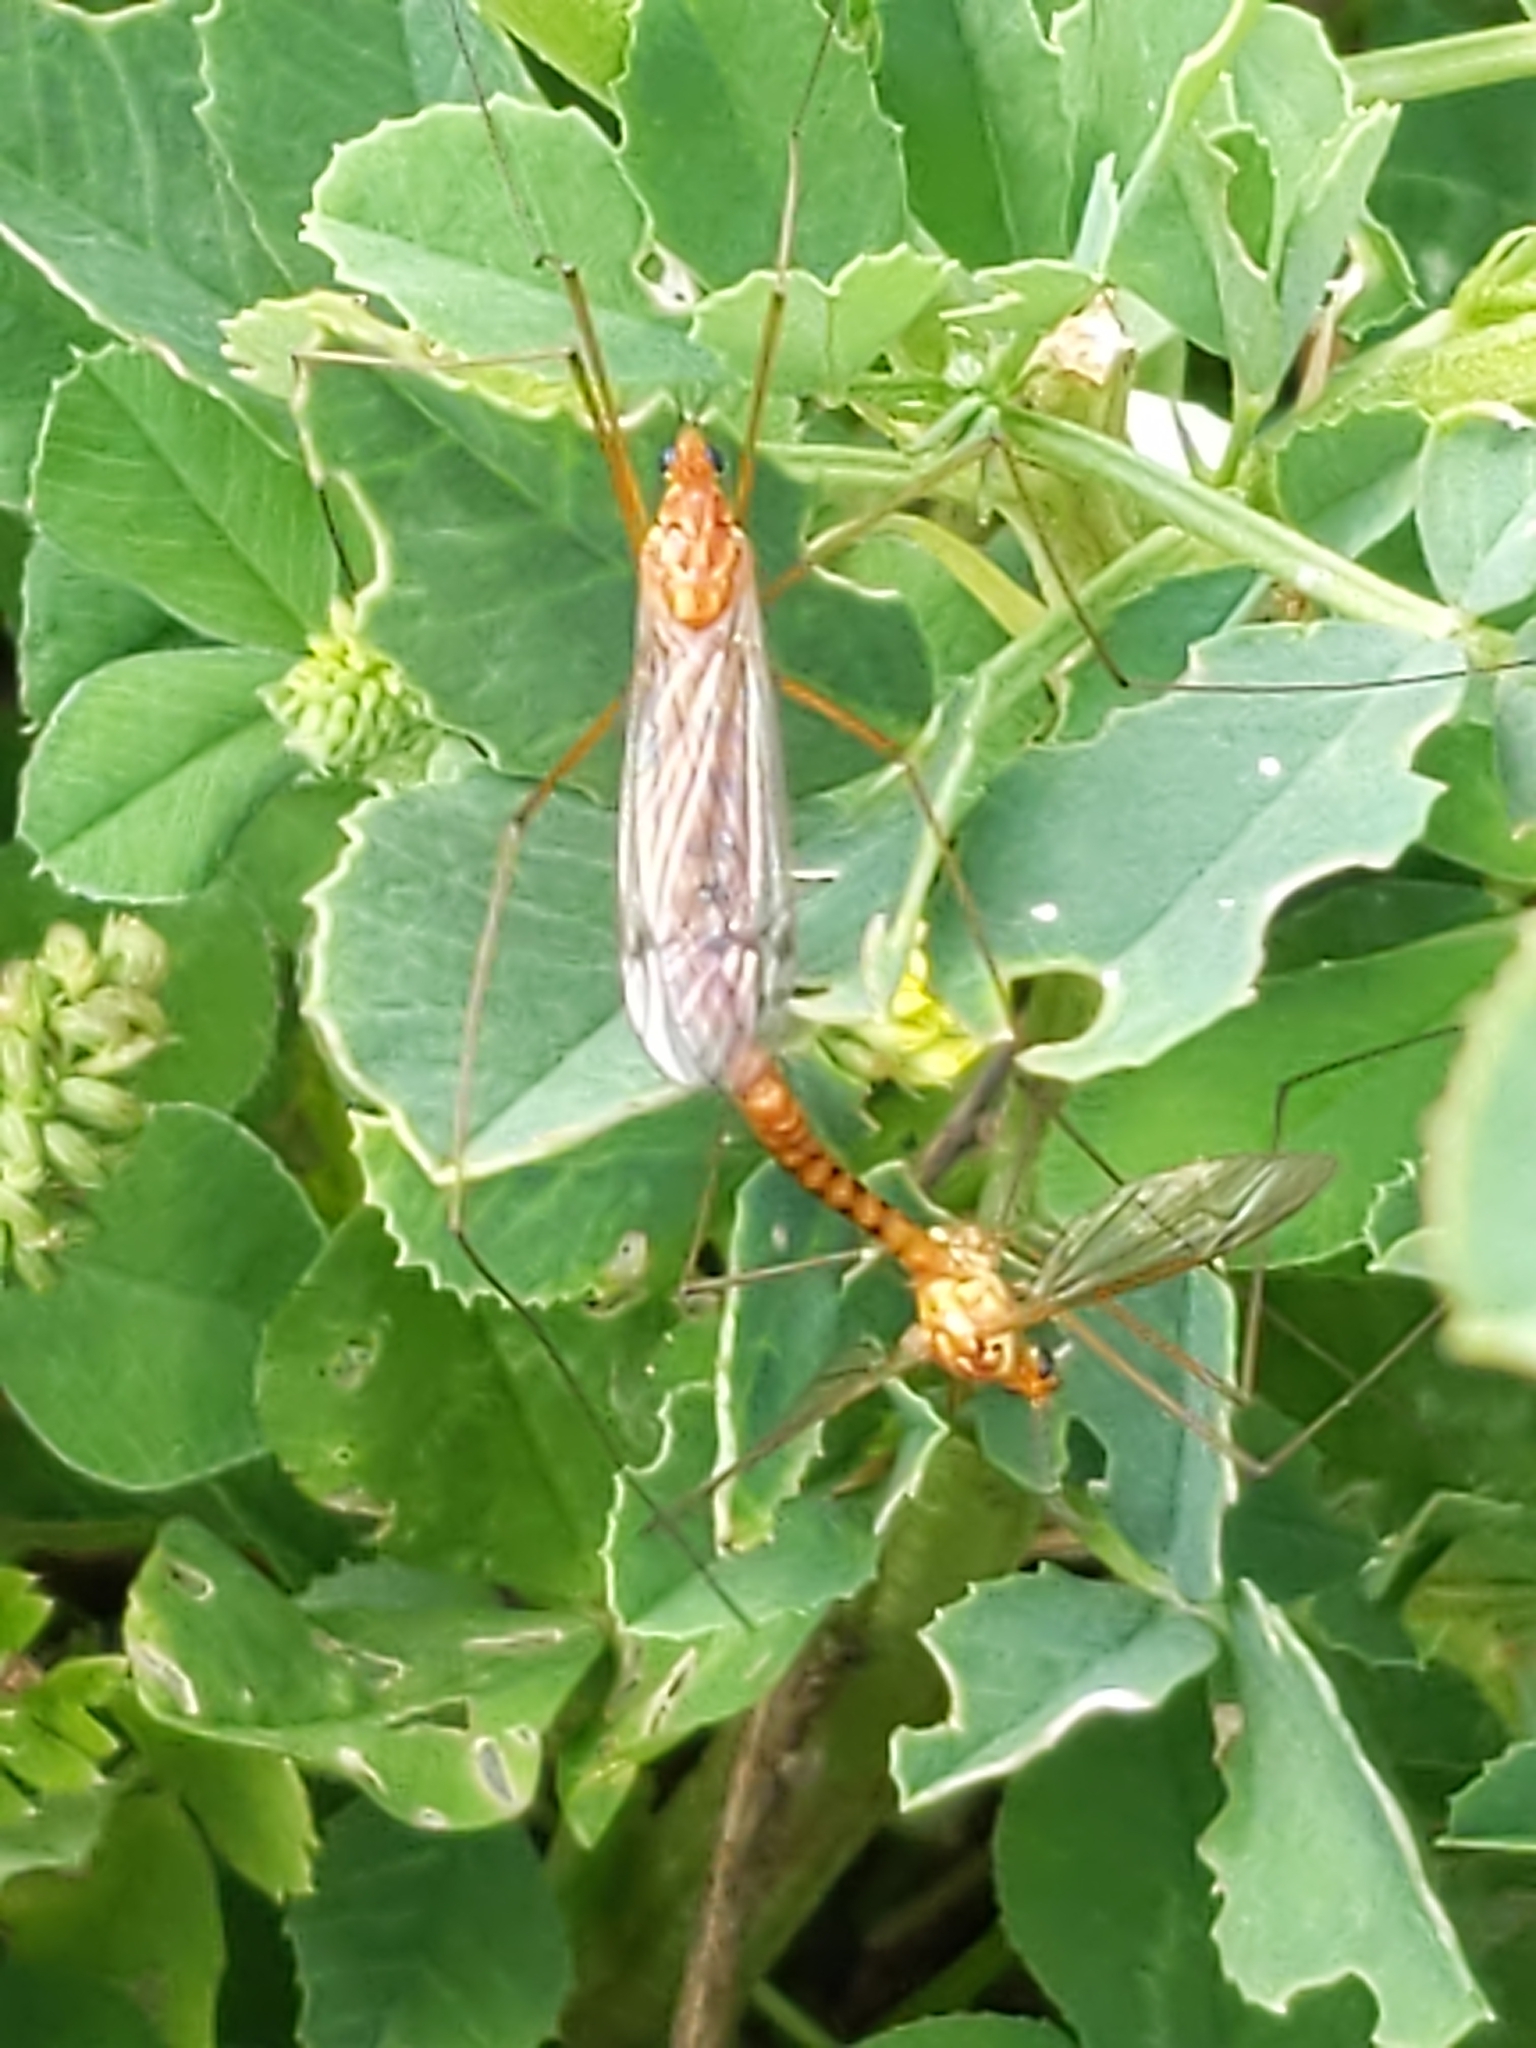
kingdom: Animalia
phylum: Arthropoda
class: Insecta
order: Diptera
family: Tipulidae
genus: Nephrotoma
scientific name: Nephrotoma ferruginea
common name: Ferruginous tiger crane fly
